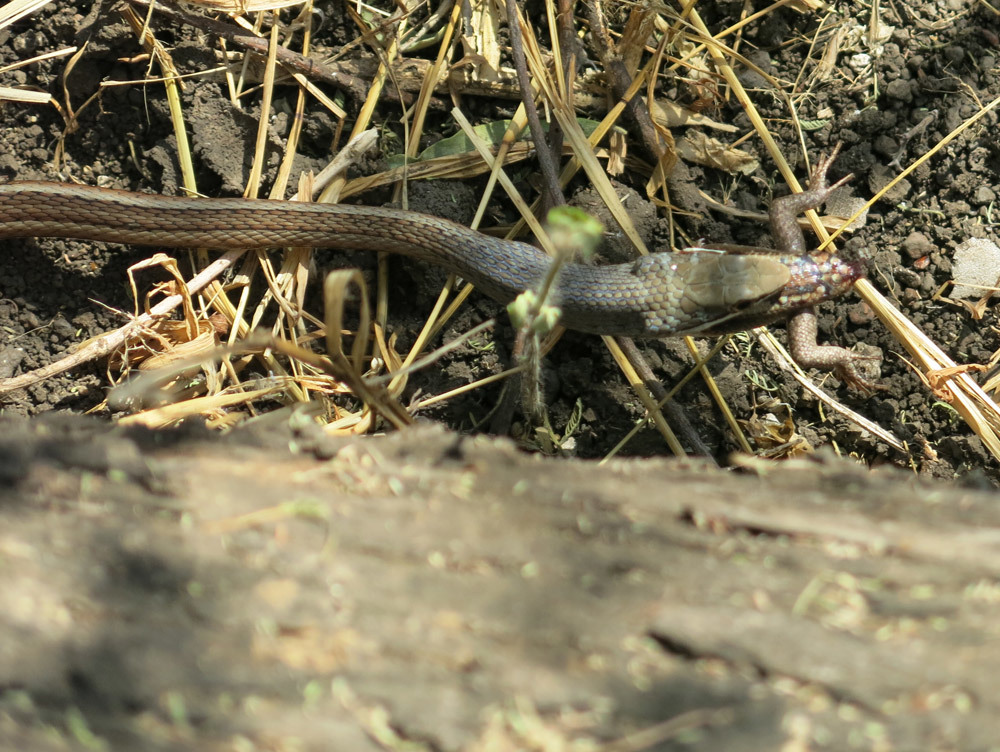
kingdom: Animalia
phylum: Chordata
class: Squamata
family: Scincidae
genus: Trachylepis
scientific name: Trachylepis varia
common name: Eastern variable skink
